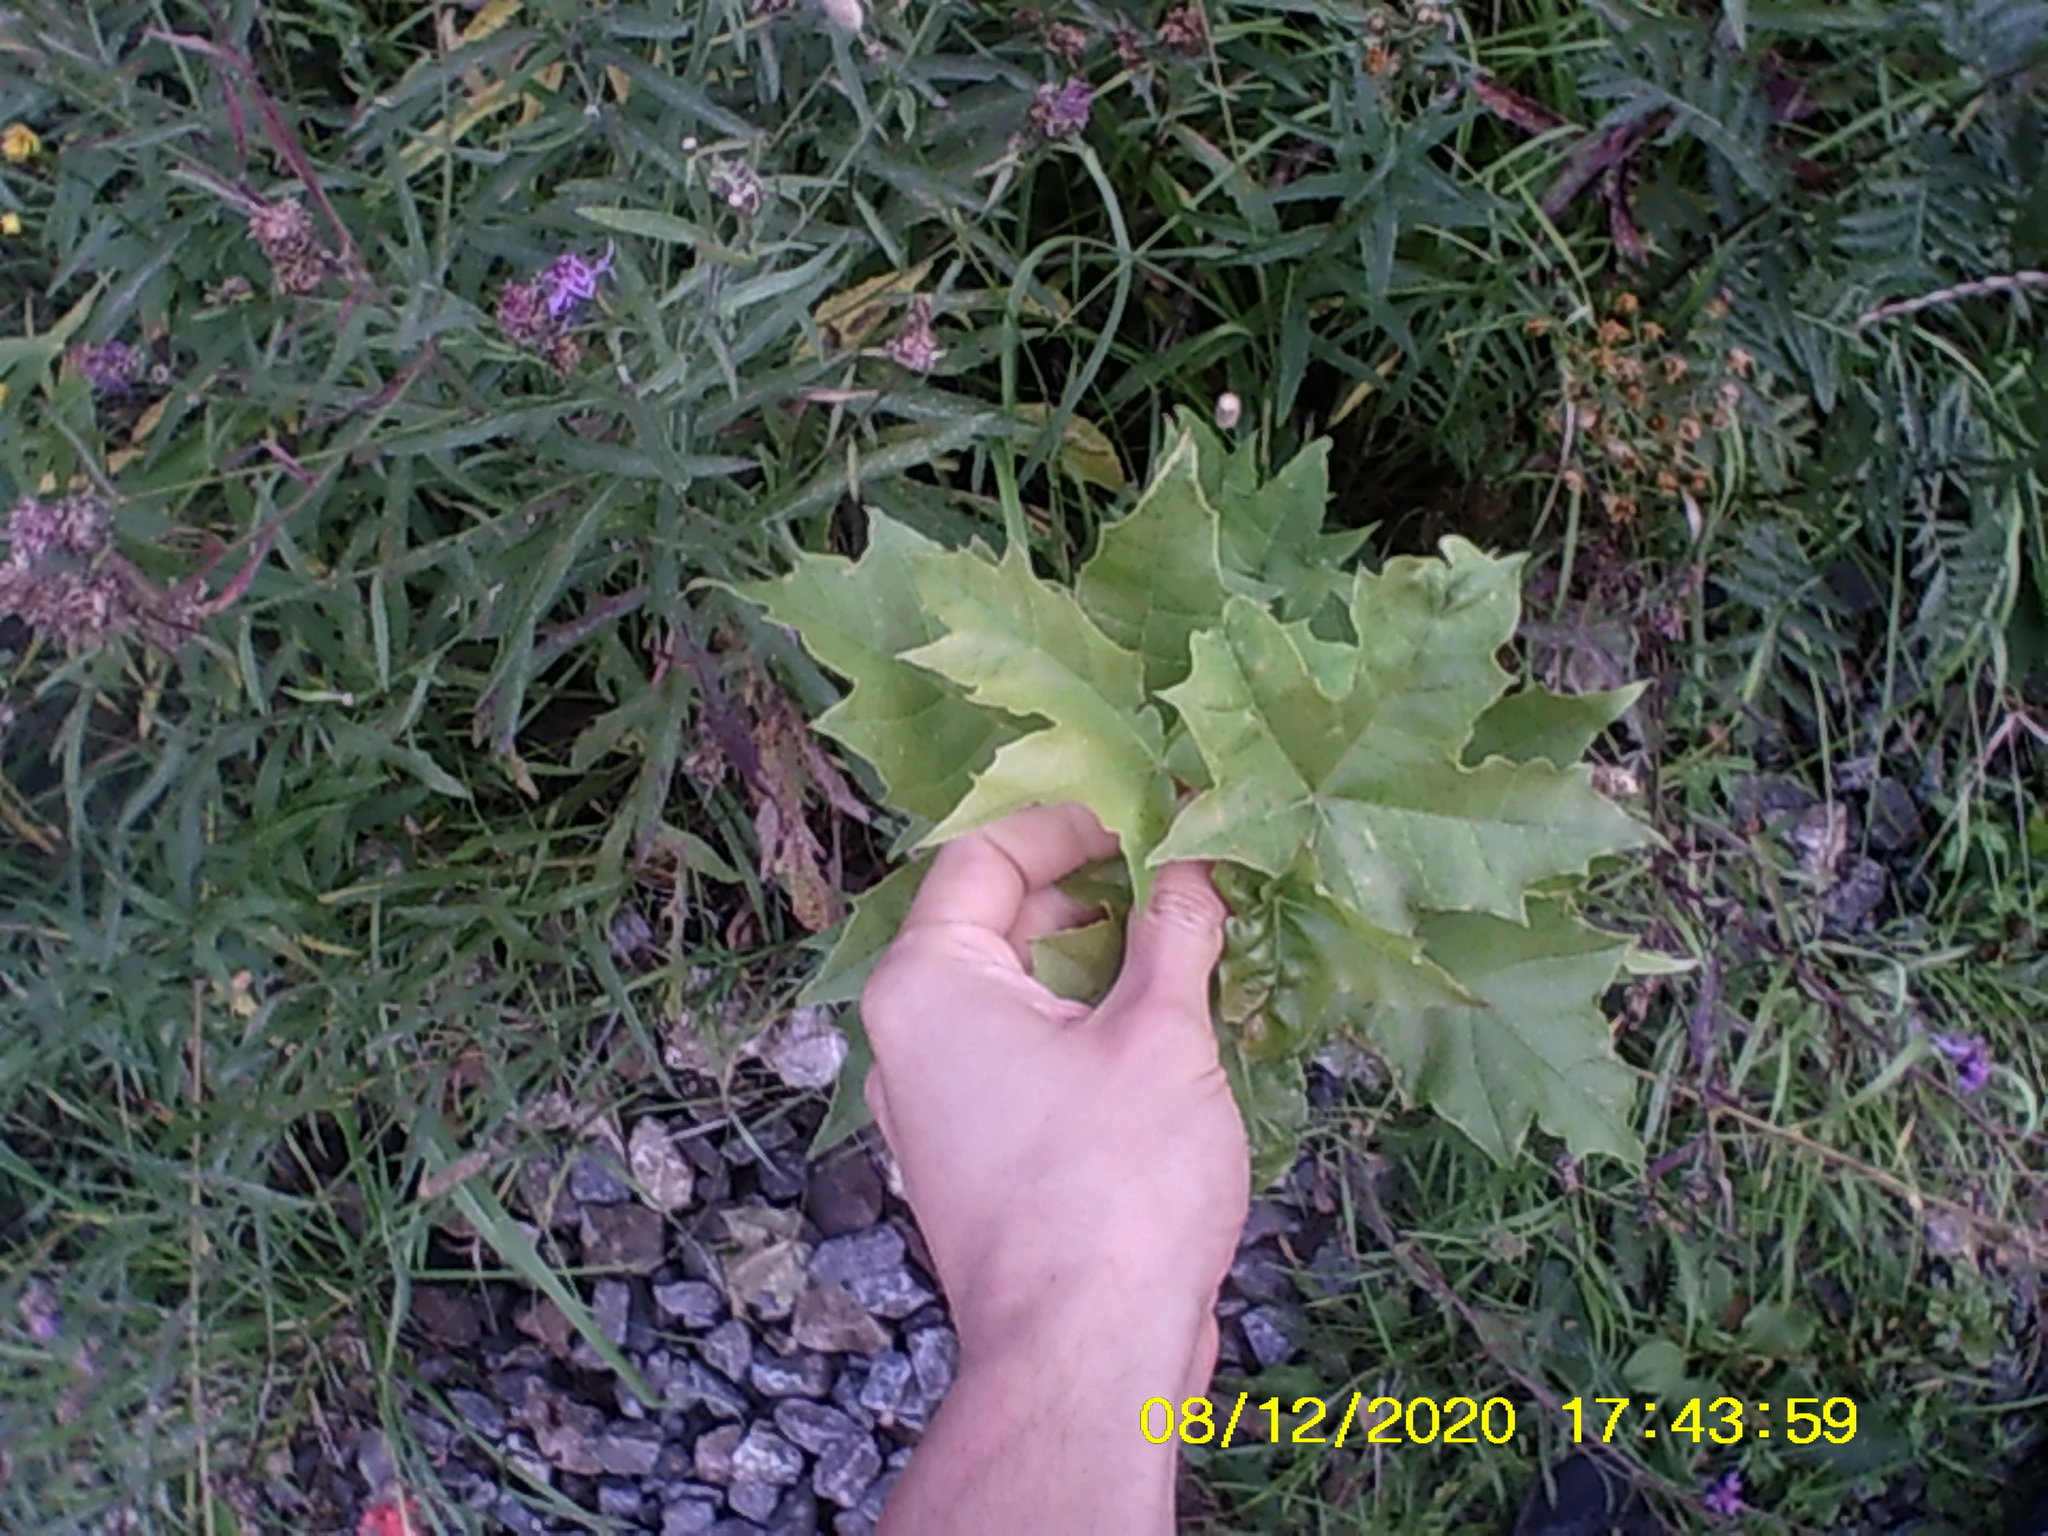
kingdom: Plantae
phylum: Tracheophyta
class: Magnoliopsida
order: Sapindales
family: Sapindaceae
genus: Acer
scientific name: Acer platanoides
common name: Norway maple
